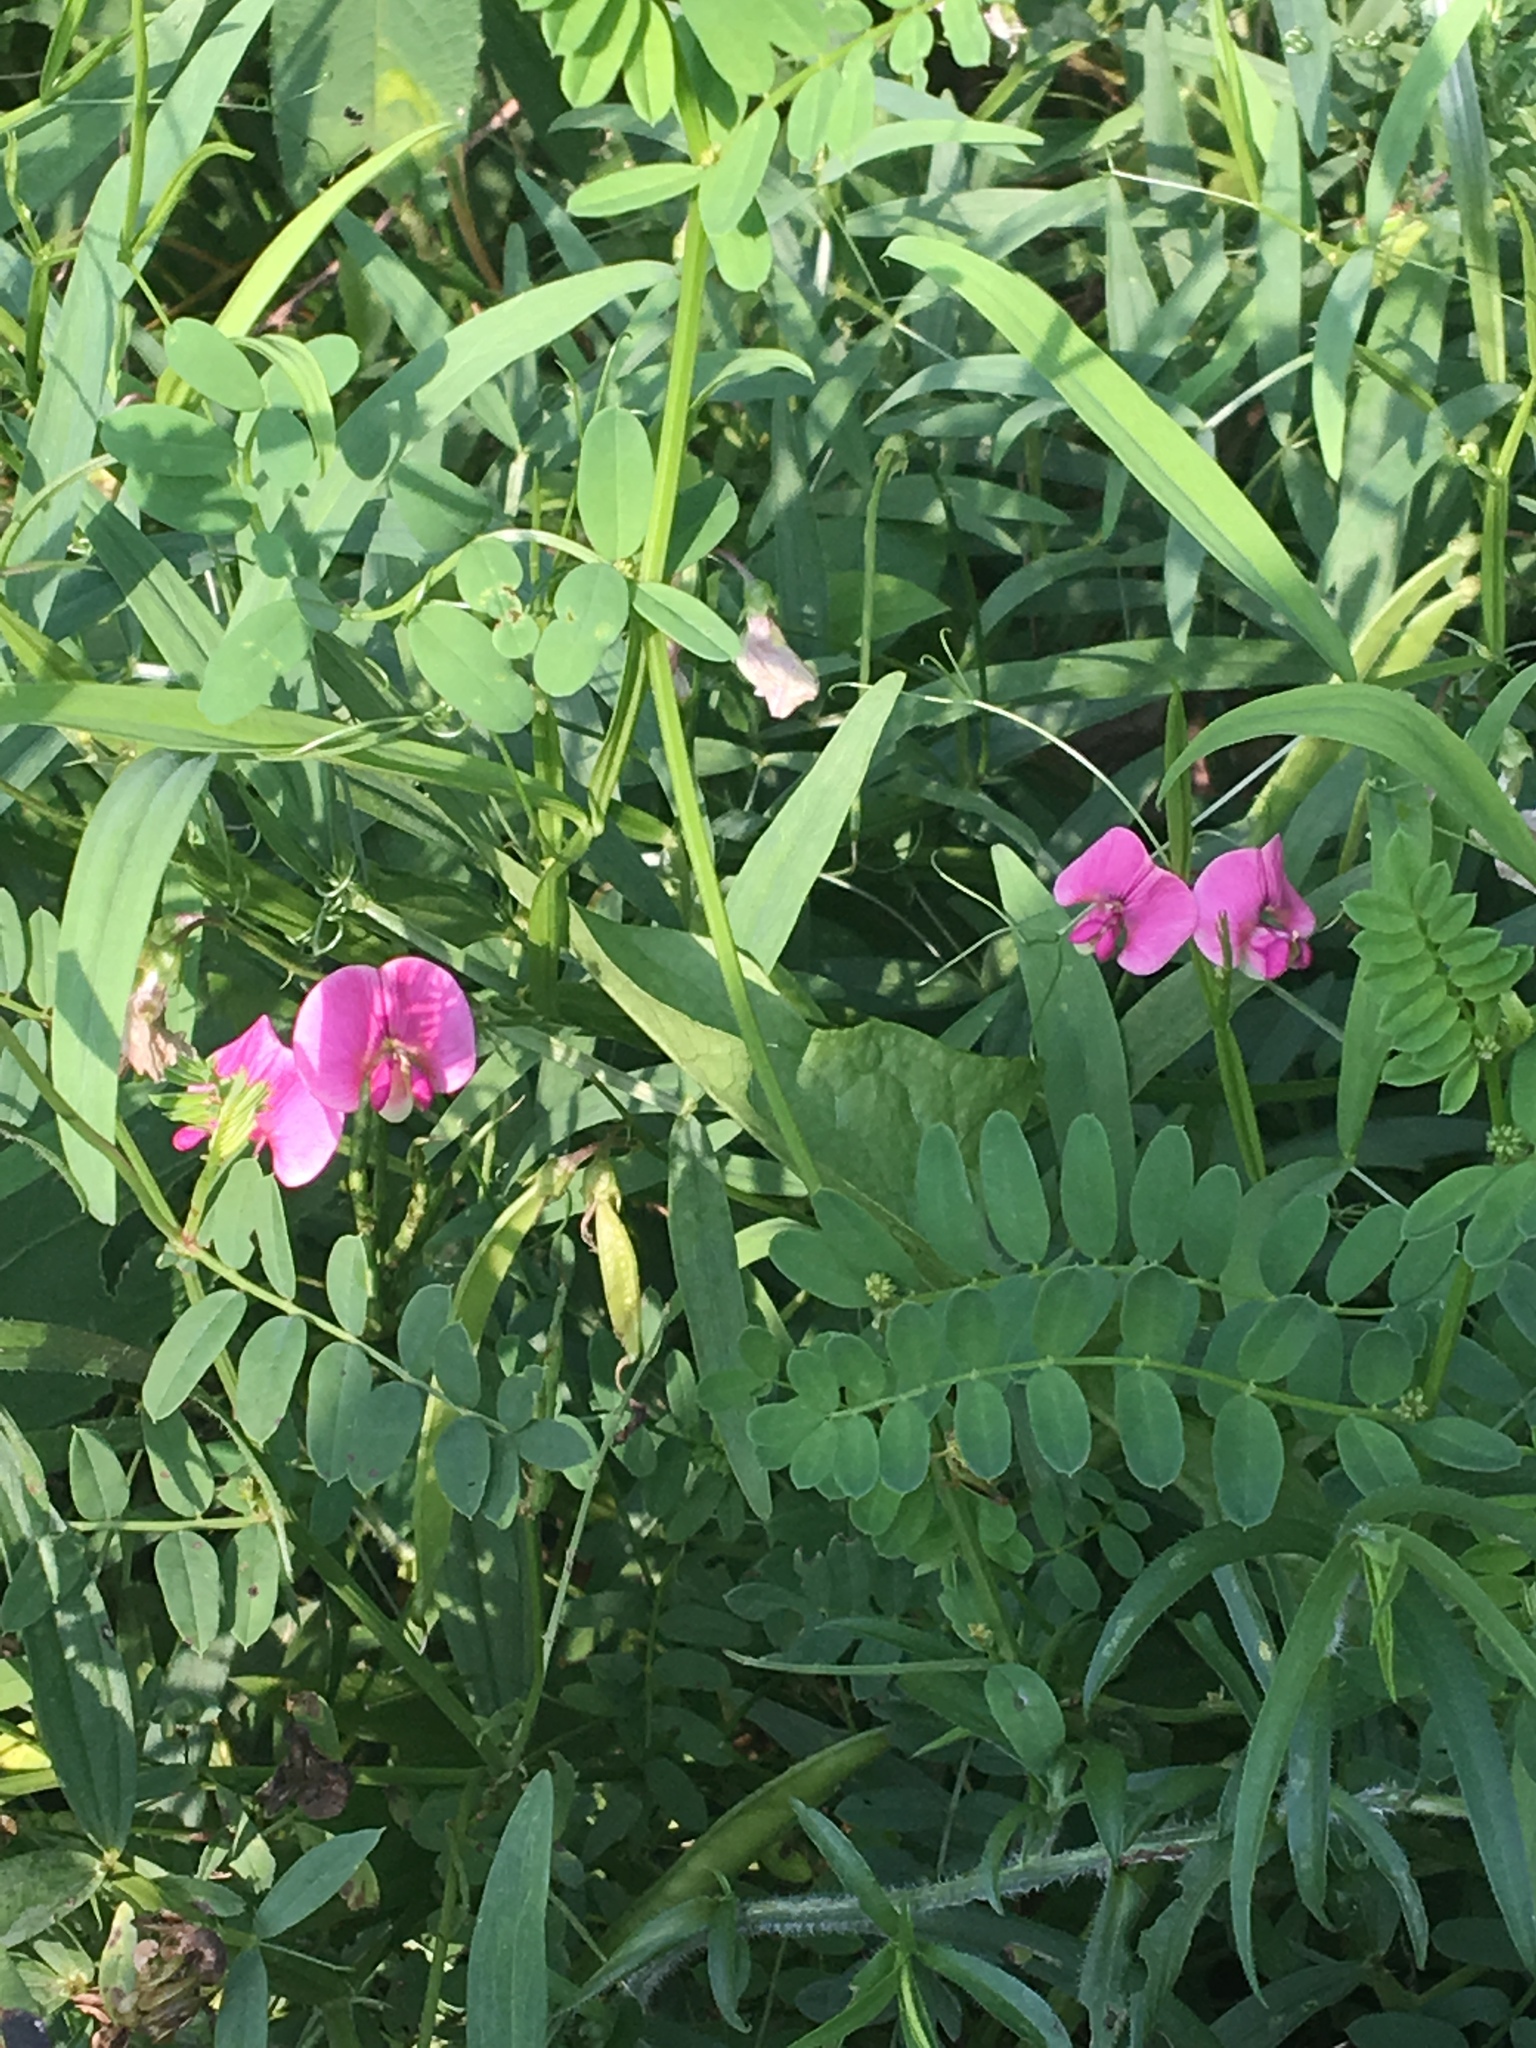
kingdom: Plantae
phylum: Tracheophyta
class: Magnoliopsida
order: Fabales
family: Fabaceae
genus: Lathyrus
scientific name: Lathyrus sylvestris
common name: Flat pea
